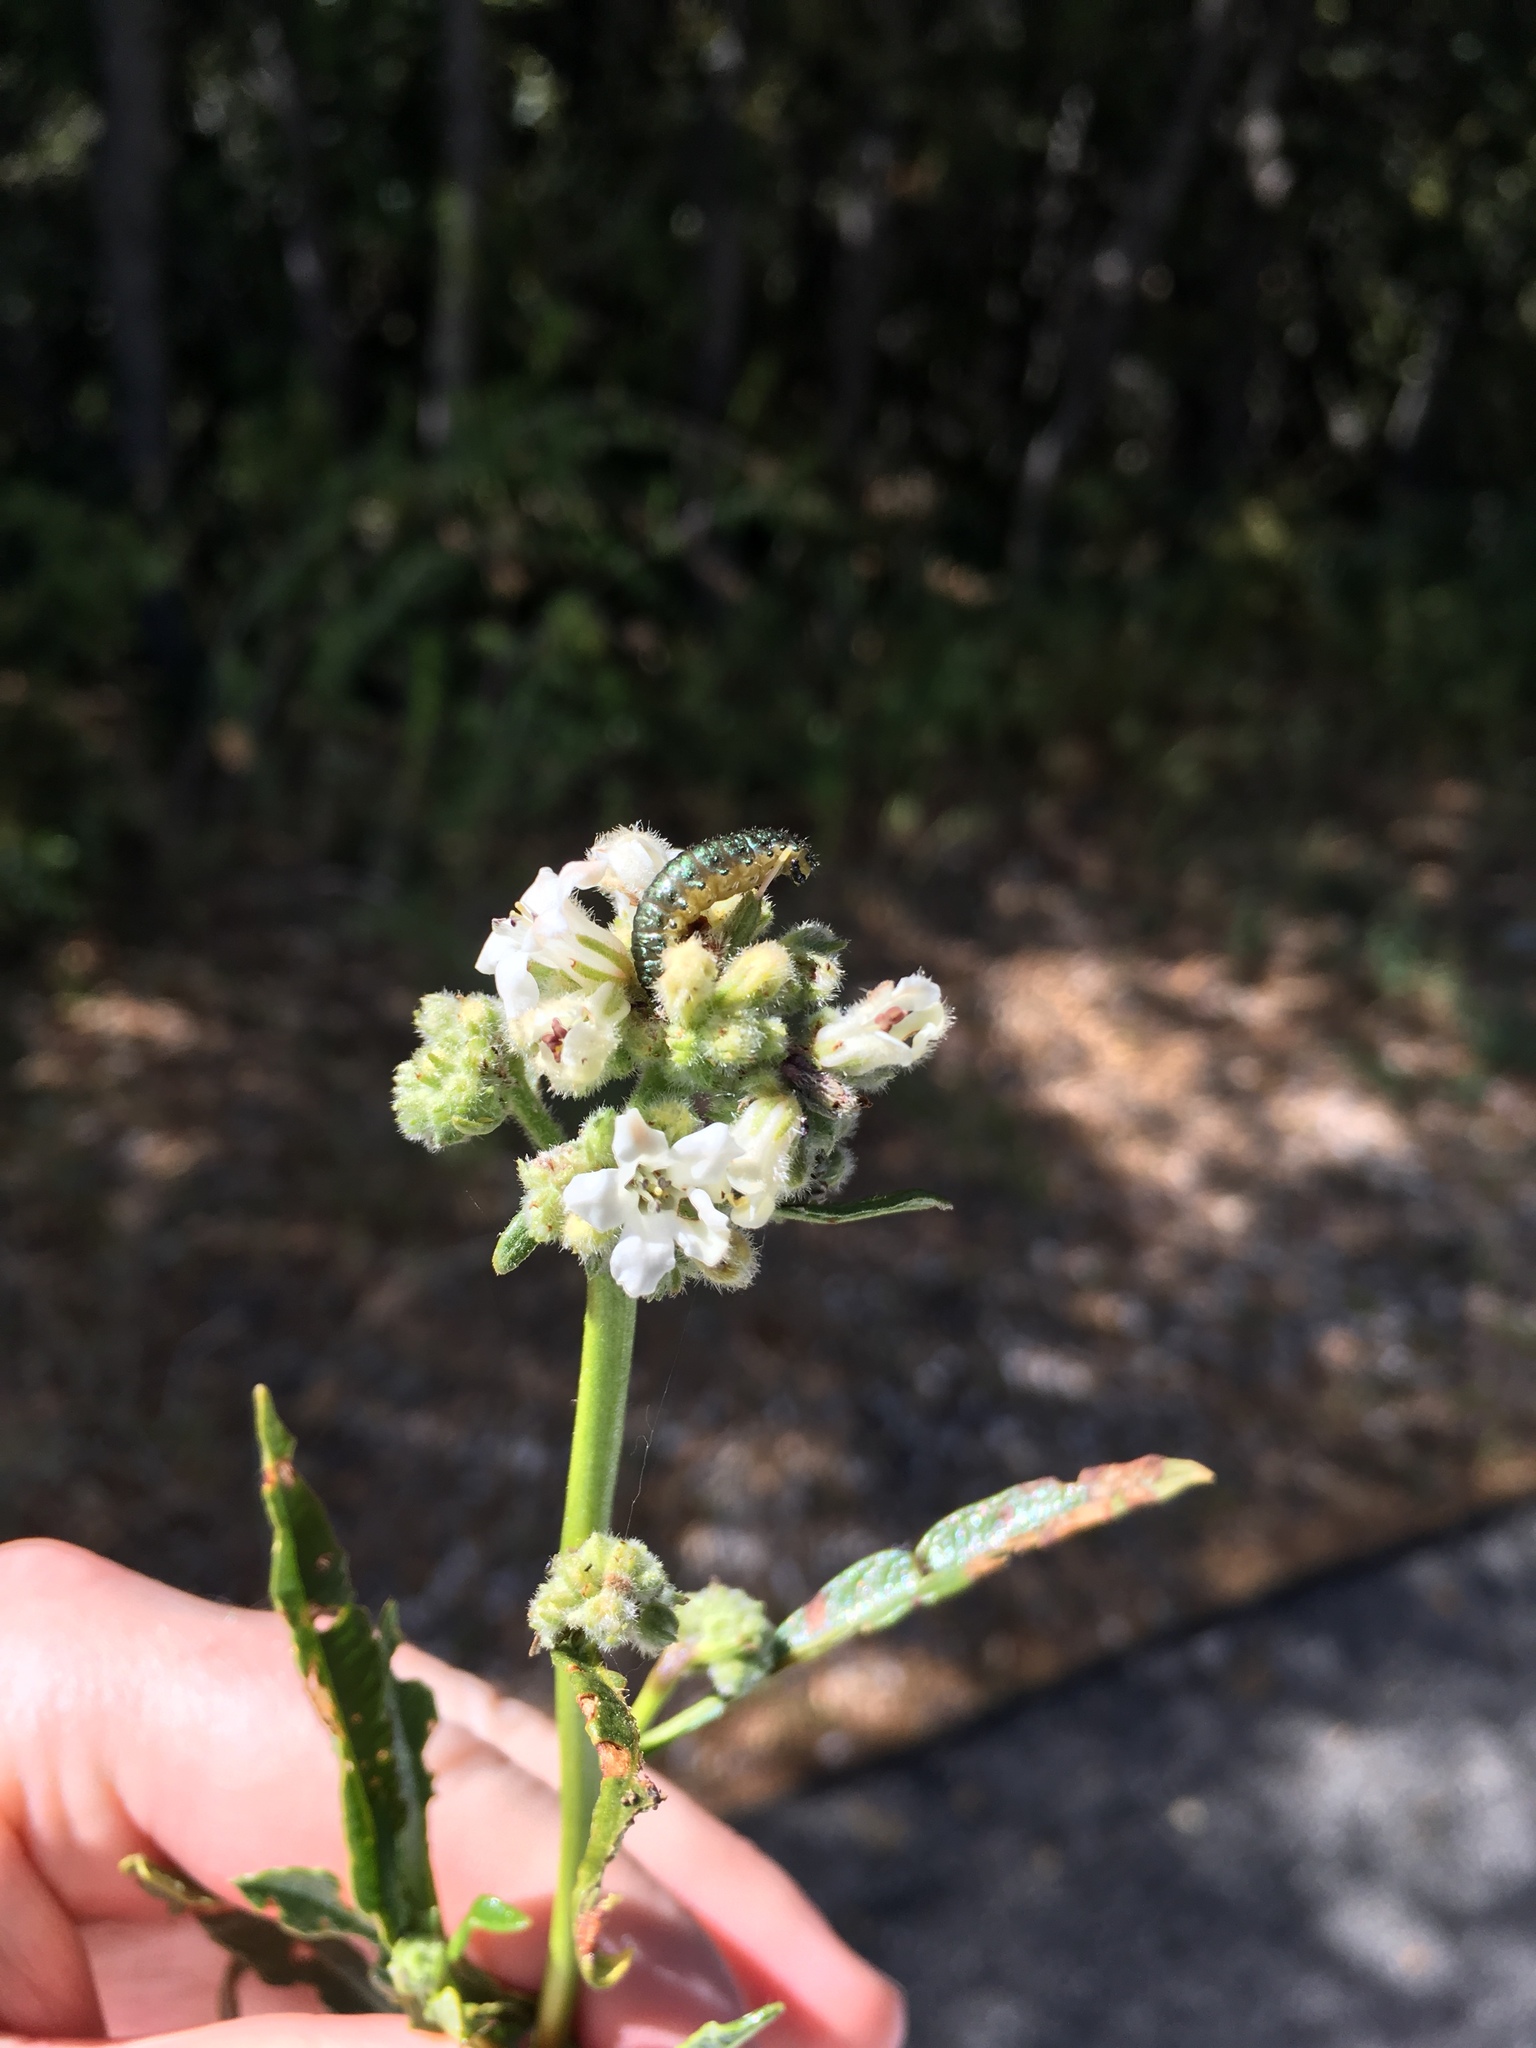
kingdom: Plantae
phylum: Tracheophyta
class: Magnoliopsida
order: Boraginales
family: Namaceae
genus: Eriodictyon
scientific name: Eriodictyon trichocalyx
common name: Hairy yerba-santa
